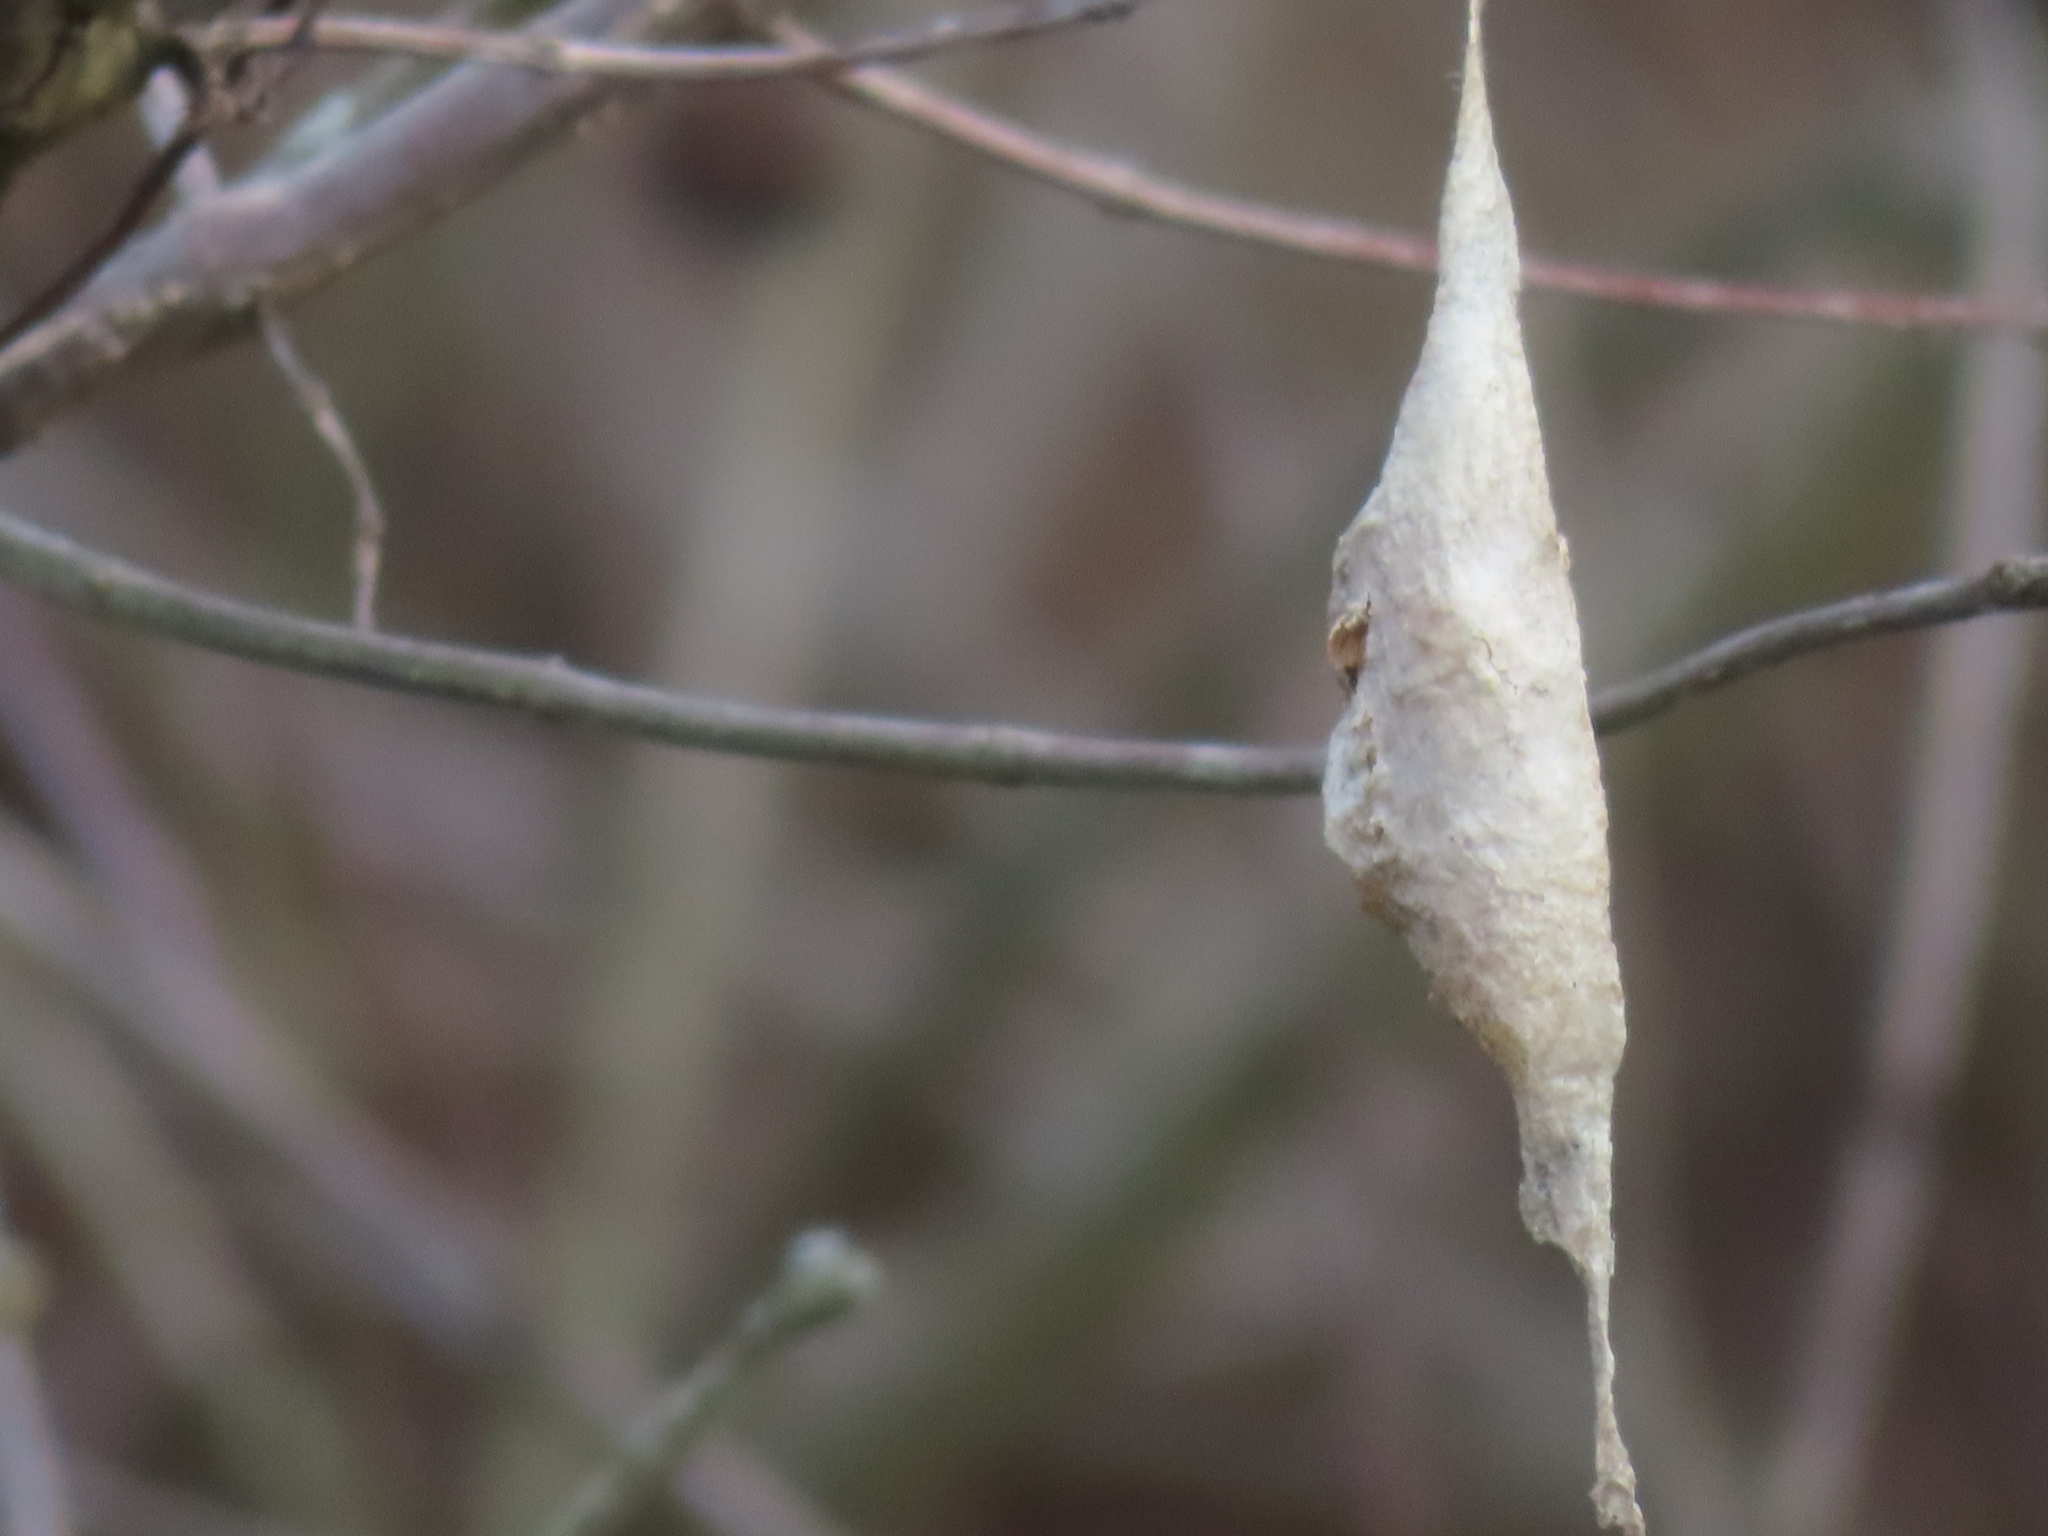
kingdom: Animalia
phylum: Arthropoda
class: Insecta
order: Lepidoptera
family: Saturniidae
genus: Callosamia
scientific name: Callosamia promethea
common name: Promethea silkmoth
